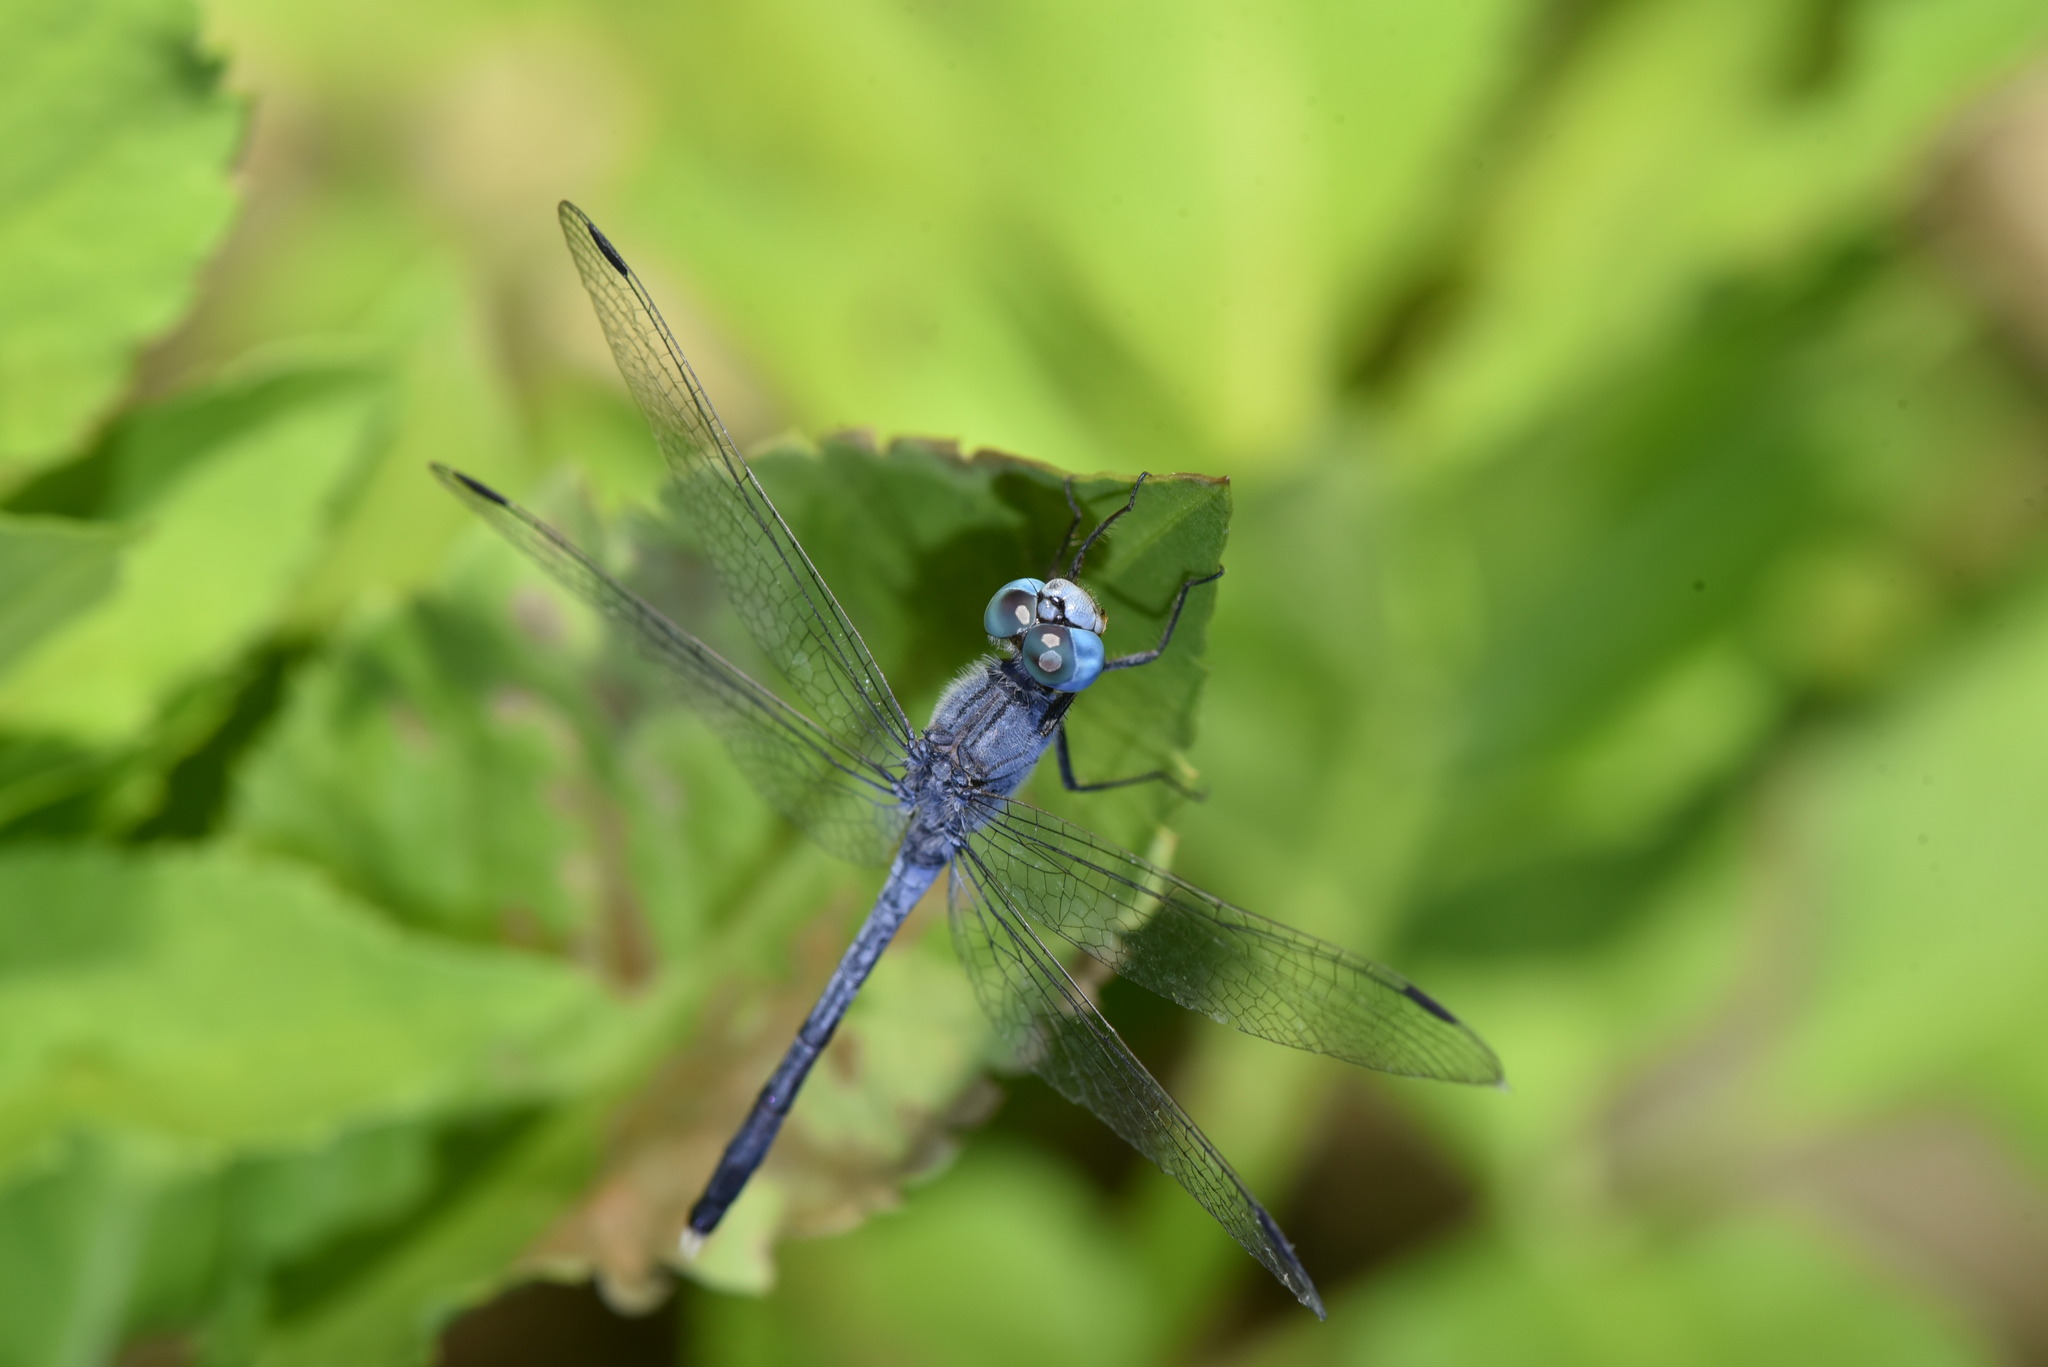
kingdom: Animalia
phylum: Arthropoda
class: Insecta
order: Odonata
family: Libellulidae
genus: Diplacodes
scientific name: Diplacodes trivialis
